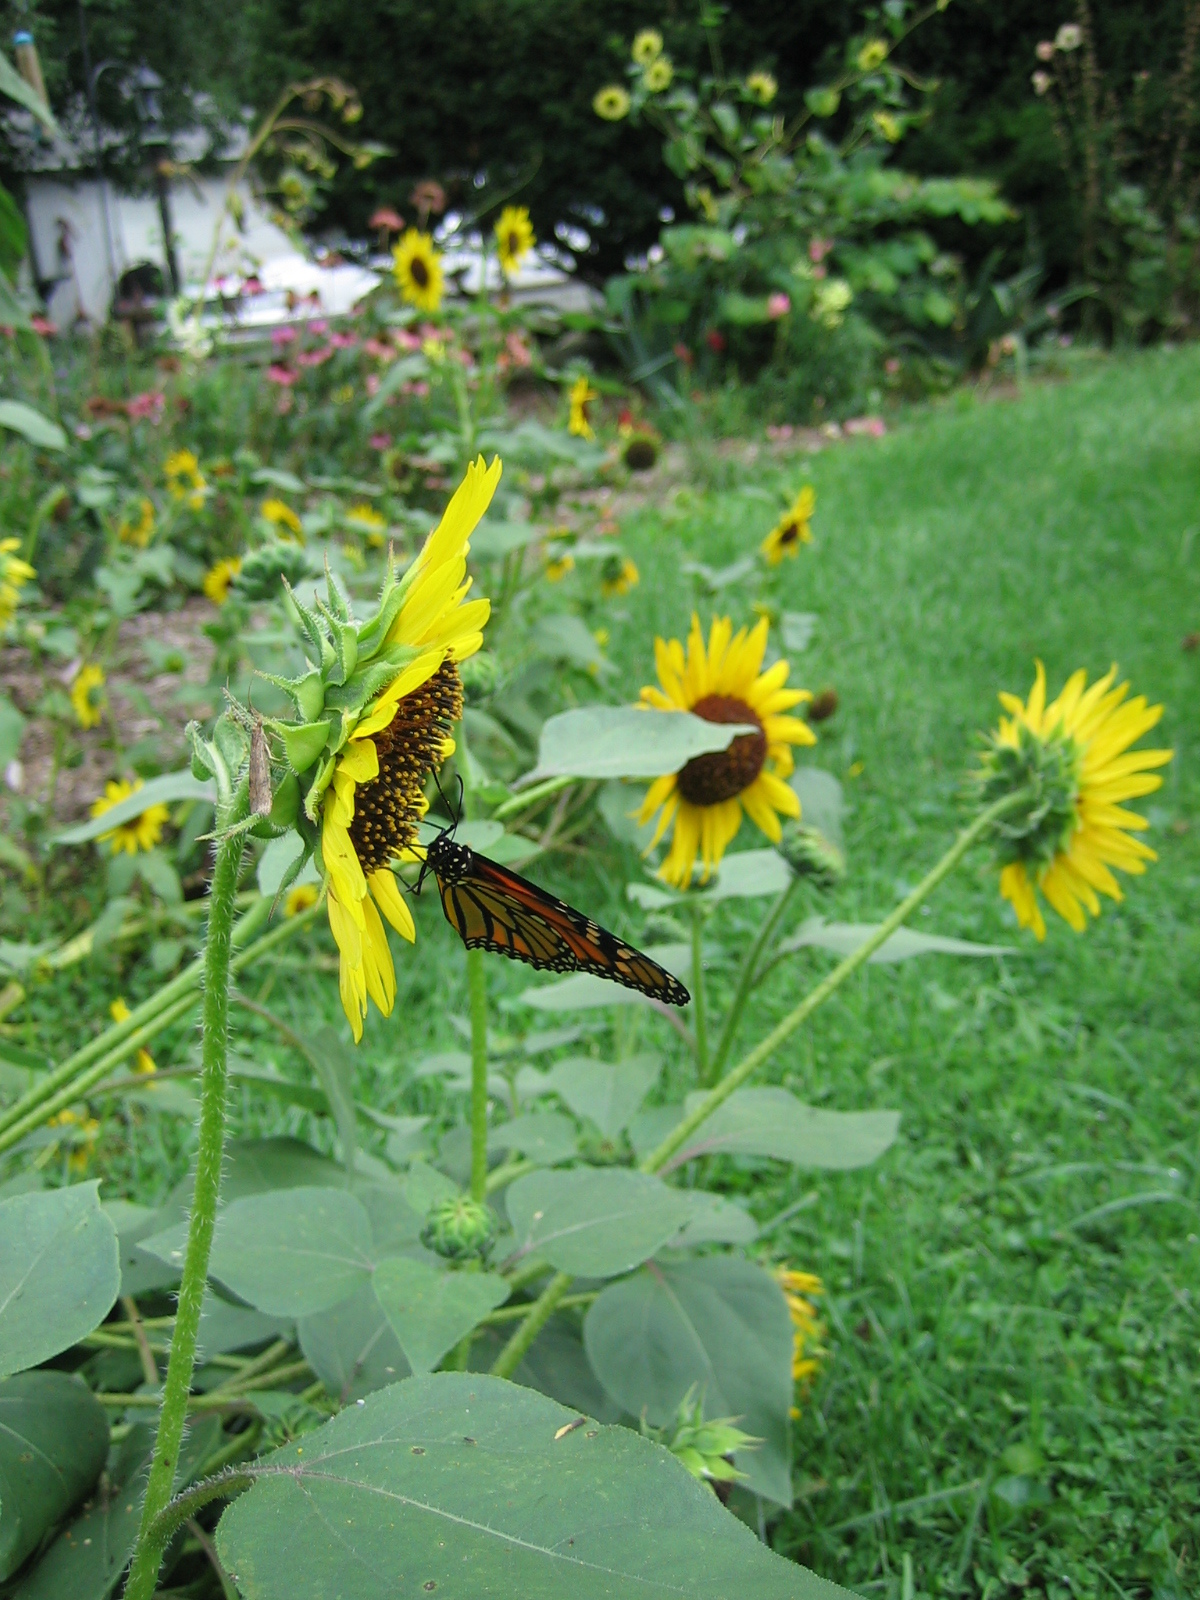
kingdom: Animalia
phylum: Arthropoda
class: Insecta
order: Lepidoptera
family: Nymphalidae
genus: Danaus
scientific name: Danaus plexippus
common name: Monarch
